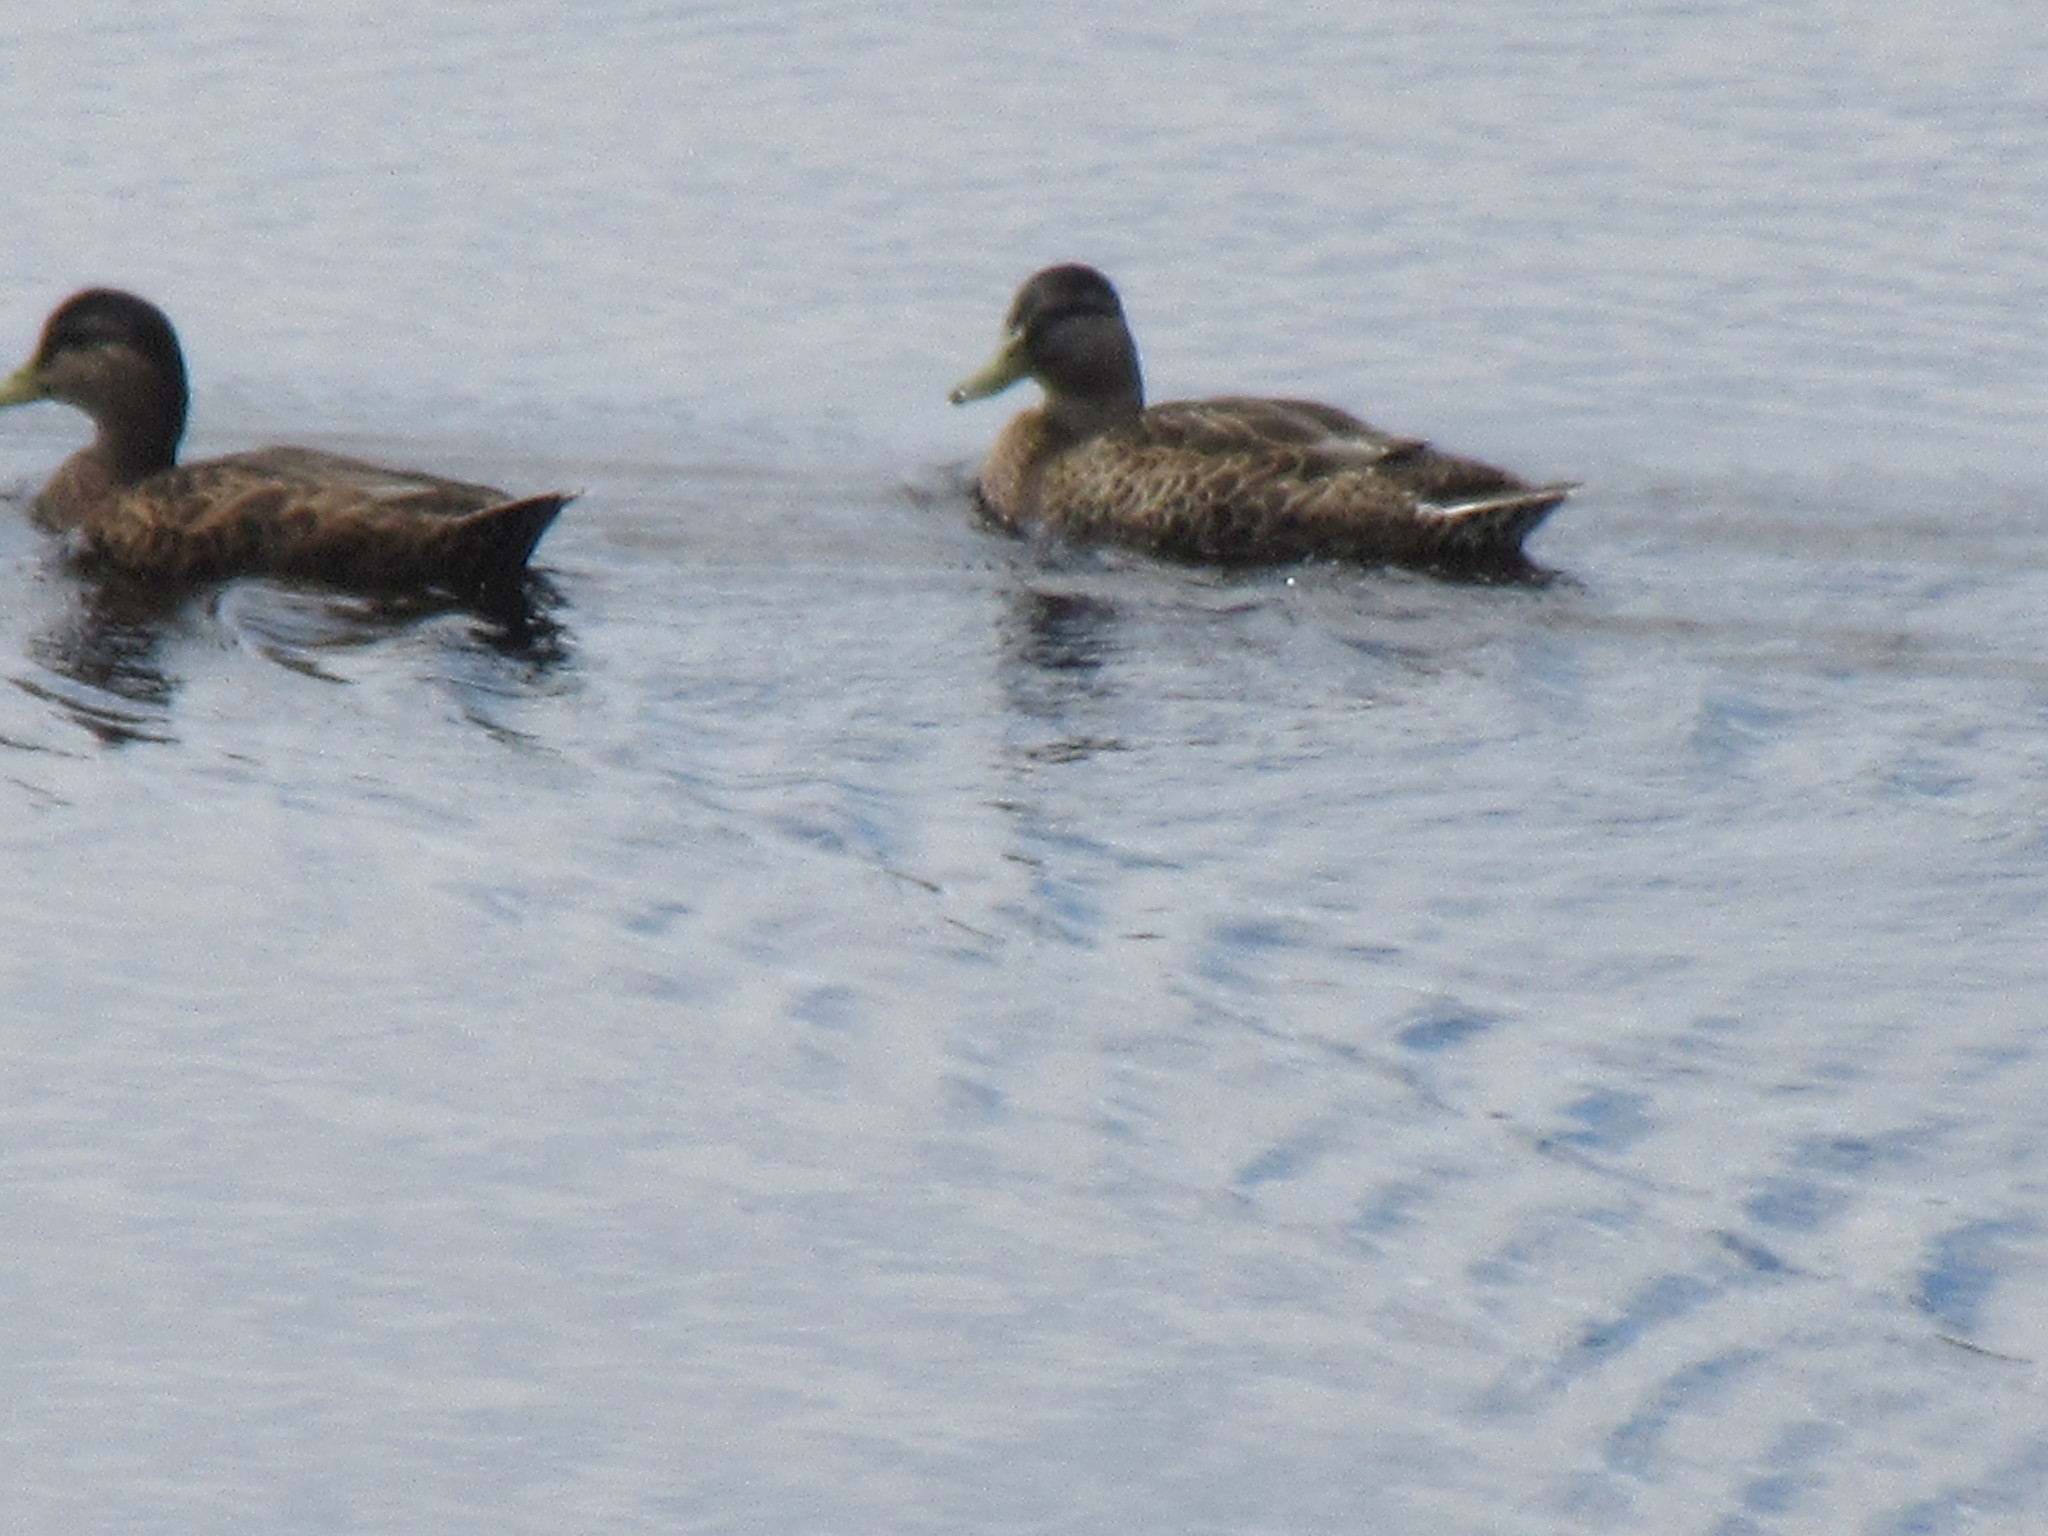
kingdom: Animalia
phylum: Chordata
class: Aves
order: Anseriformes
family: Anatidae
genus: Anas
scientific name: Anas rubripes
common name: American black duck
